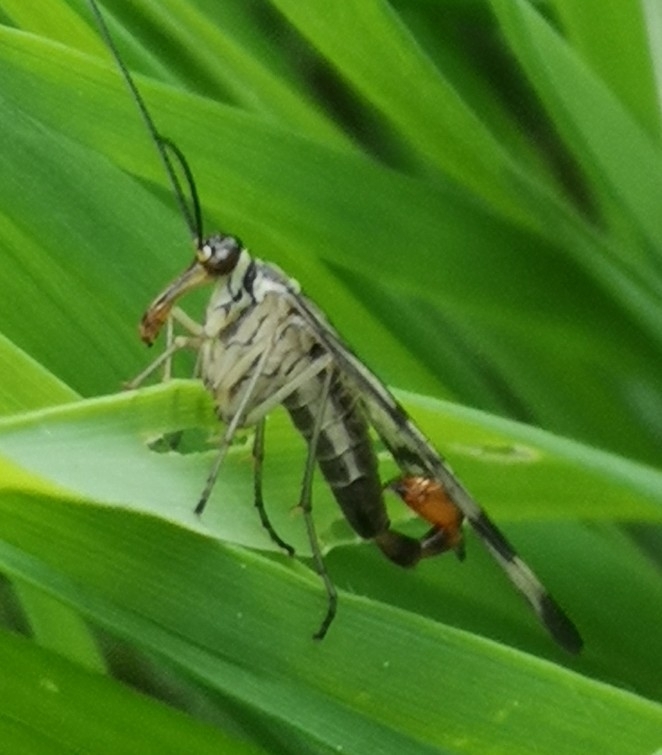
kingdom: Animalia
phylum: Arthropoda
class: Insecta
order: Mecoptera
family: Panorpidae
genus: Panorpa
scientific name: Panorpa communis
